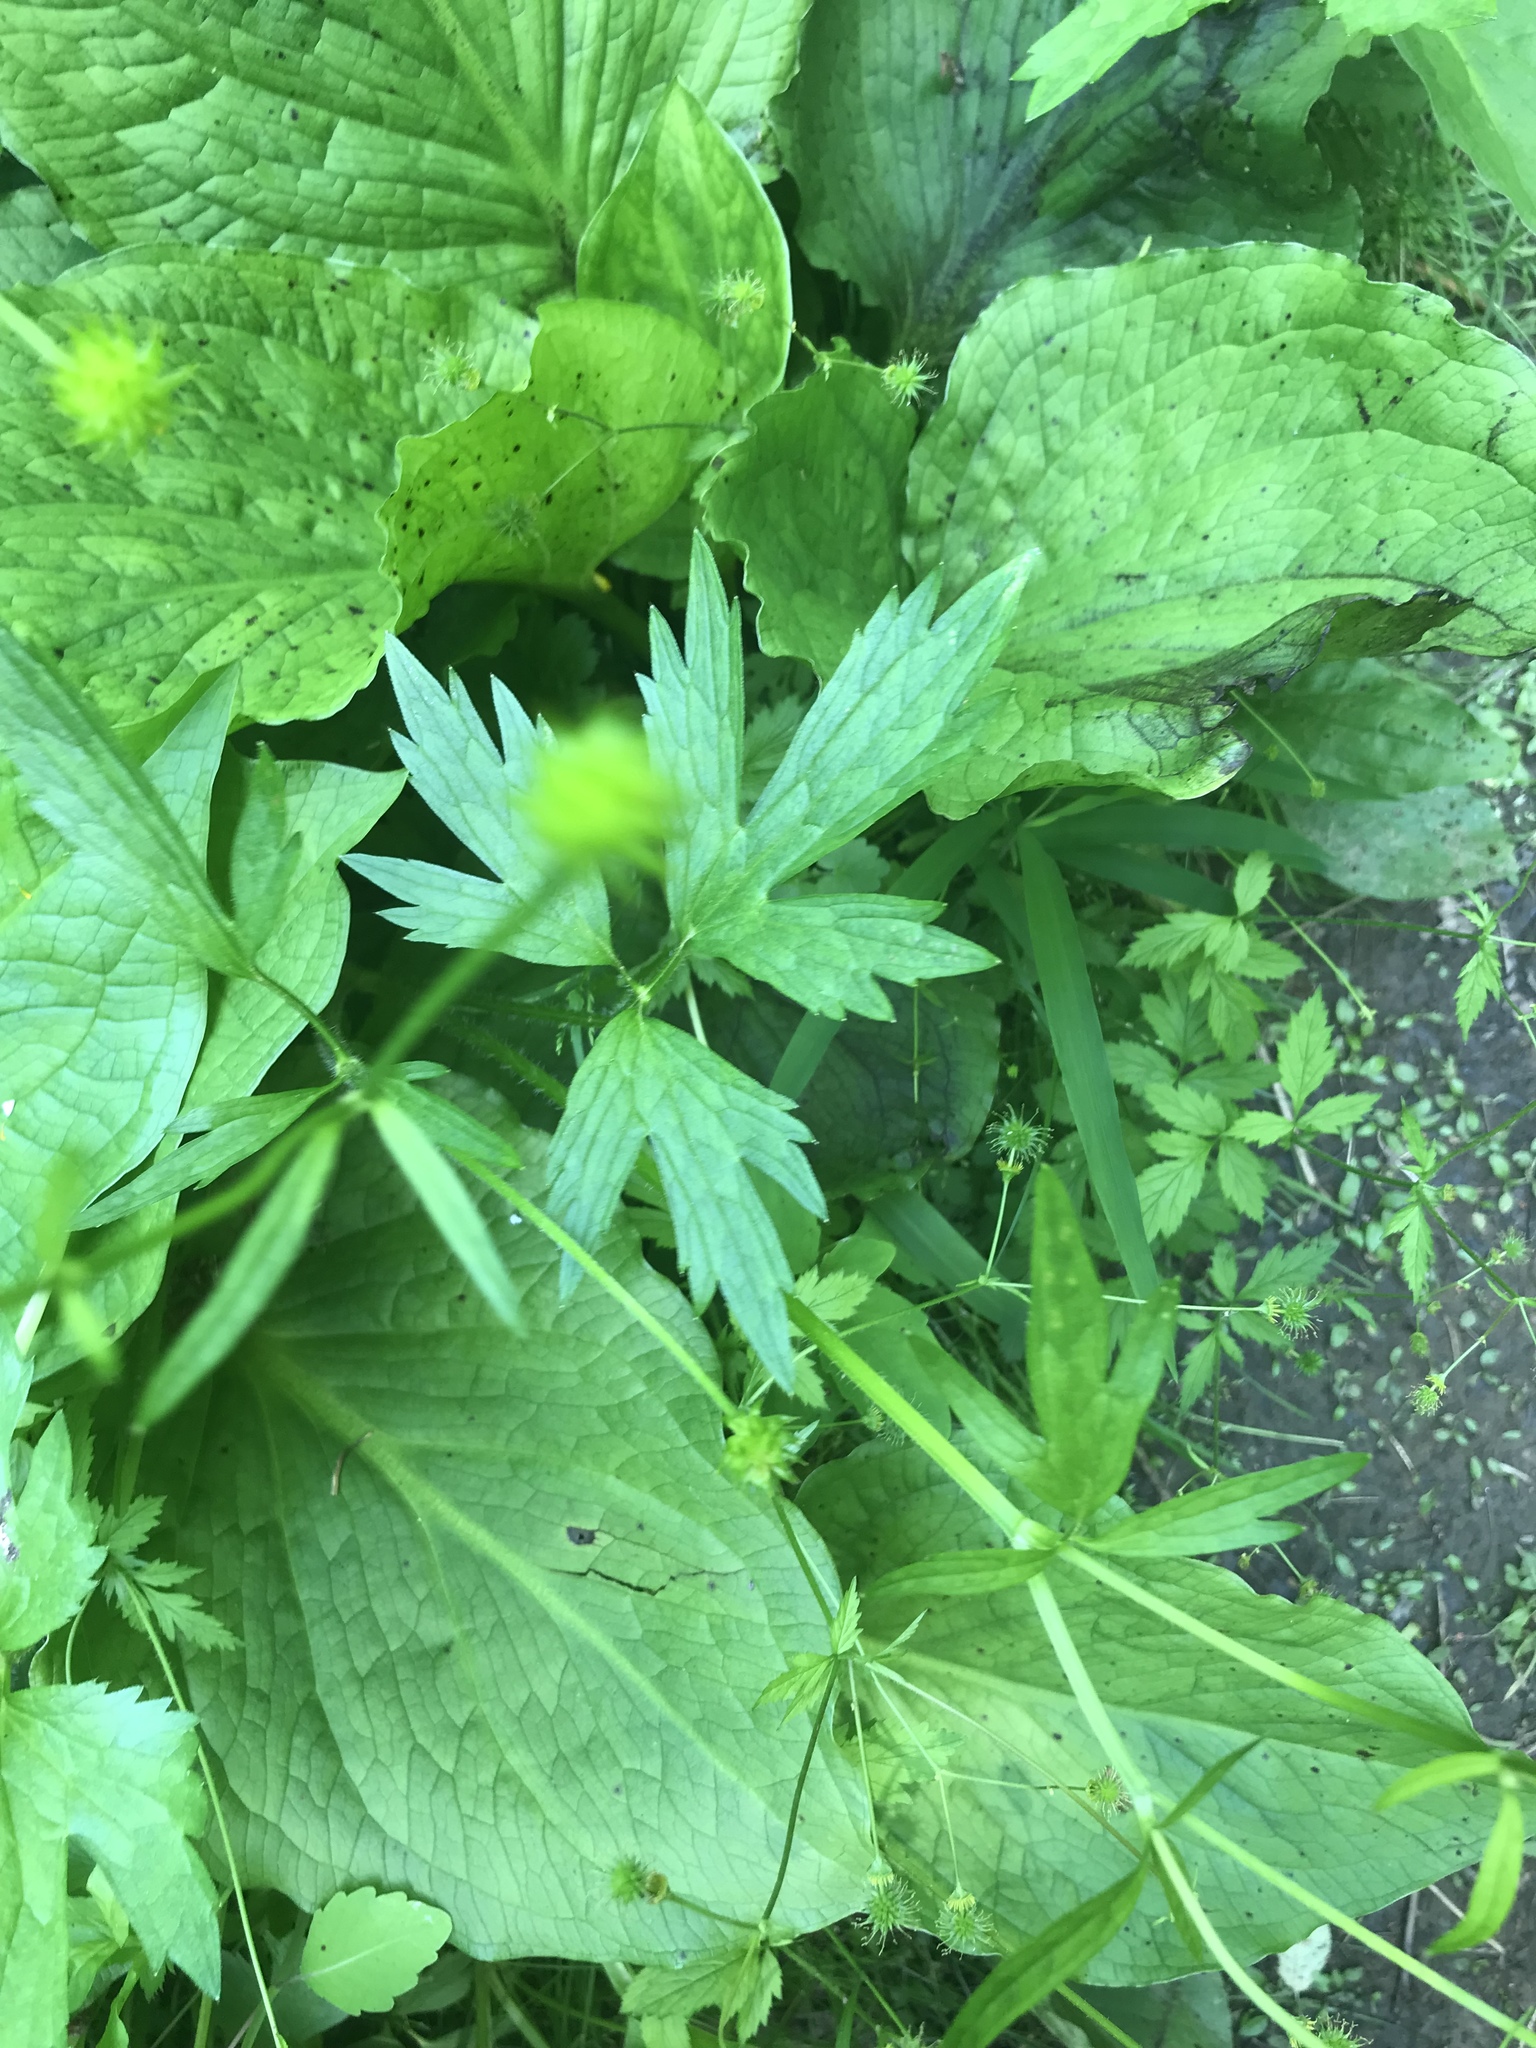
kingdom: Plantae
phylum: Tracheophyta
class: Magnoliopsida
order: Ranunculales
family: Ranunculaceae
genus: Ranunculus
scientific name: Ranunculus hispidus
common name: Bristly buttercup
